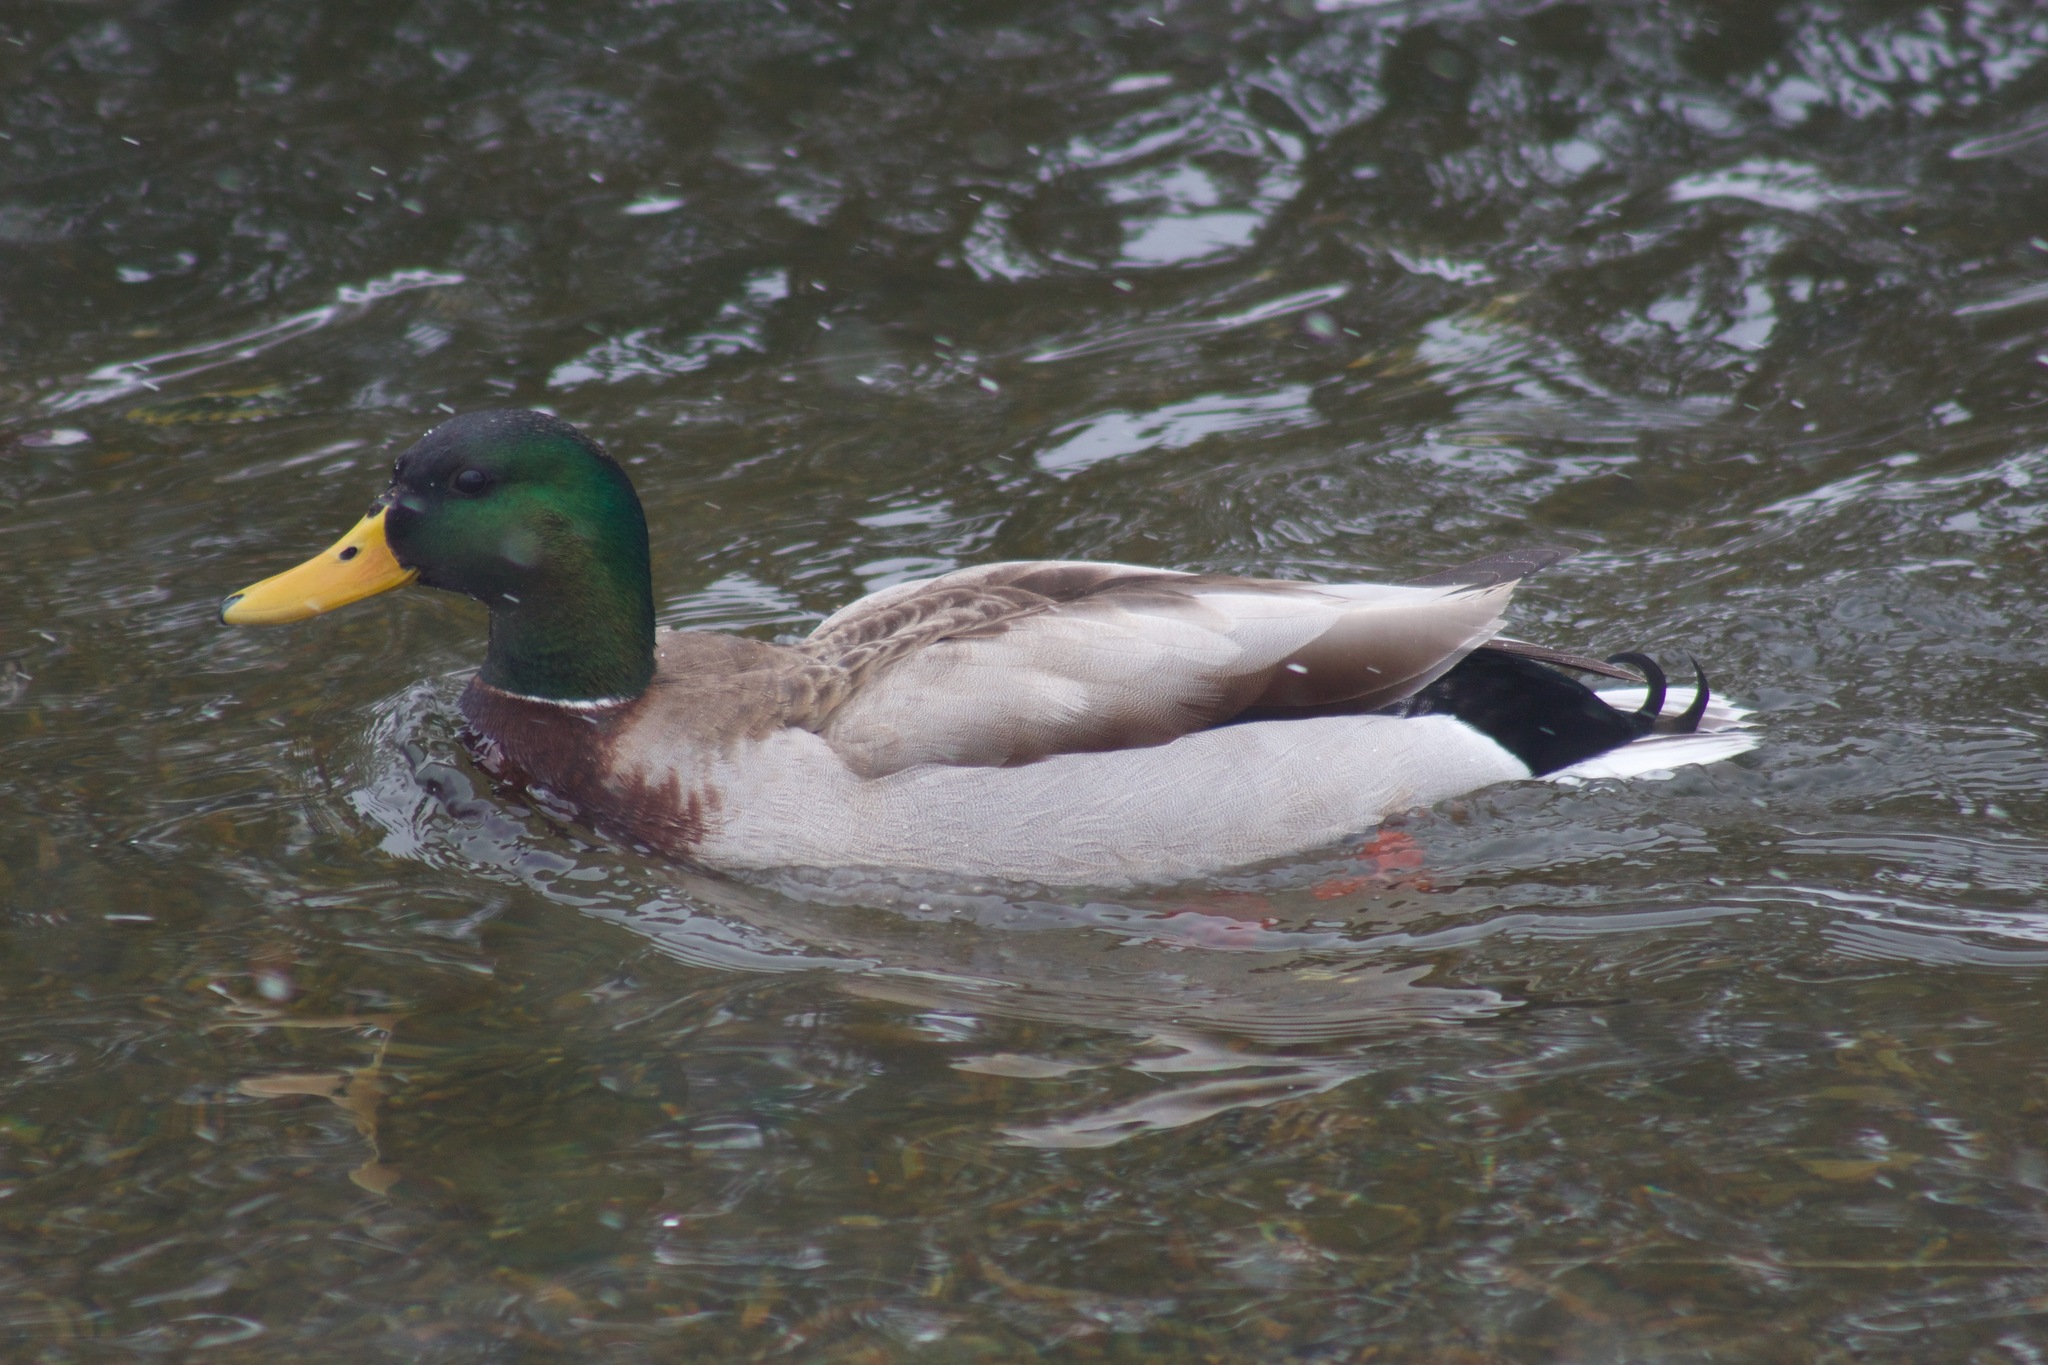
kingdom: Animalia
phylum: Chordata
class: Aves
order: Anseriformes
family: Anatidae
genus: Anas
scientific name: Anas platyrhynchos
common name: Mallard
